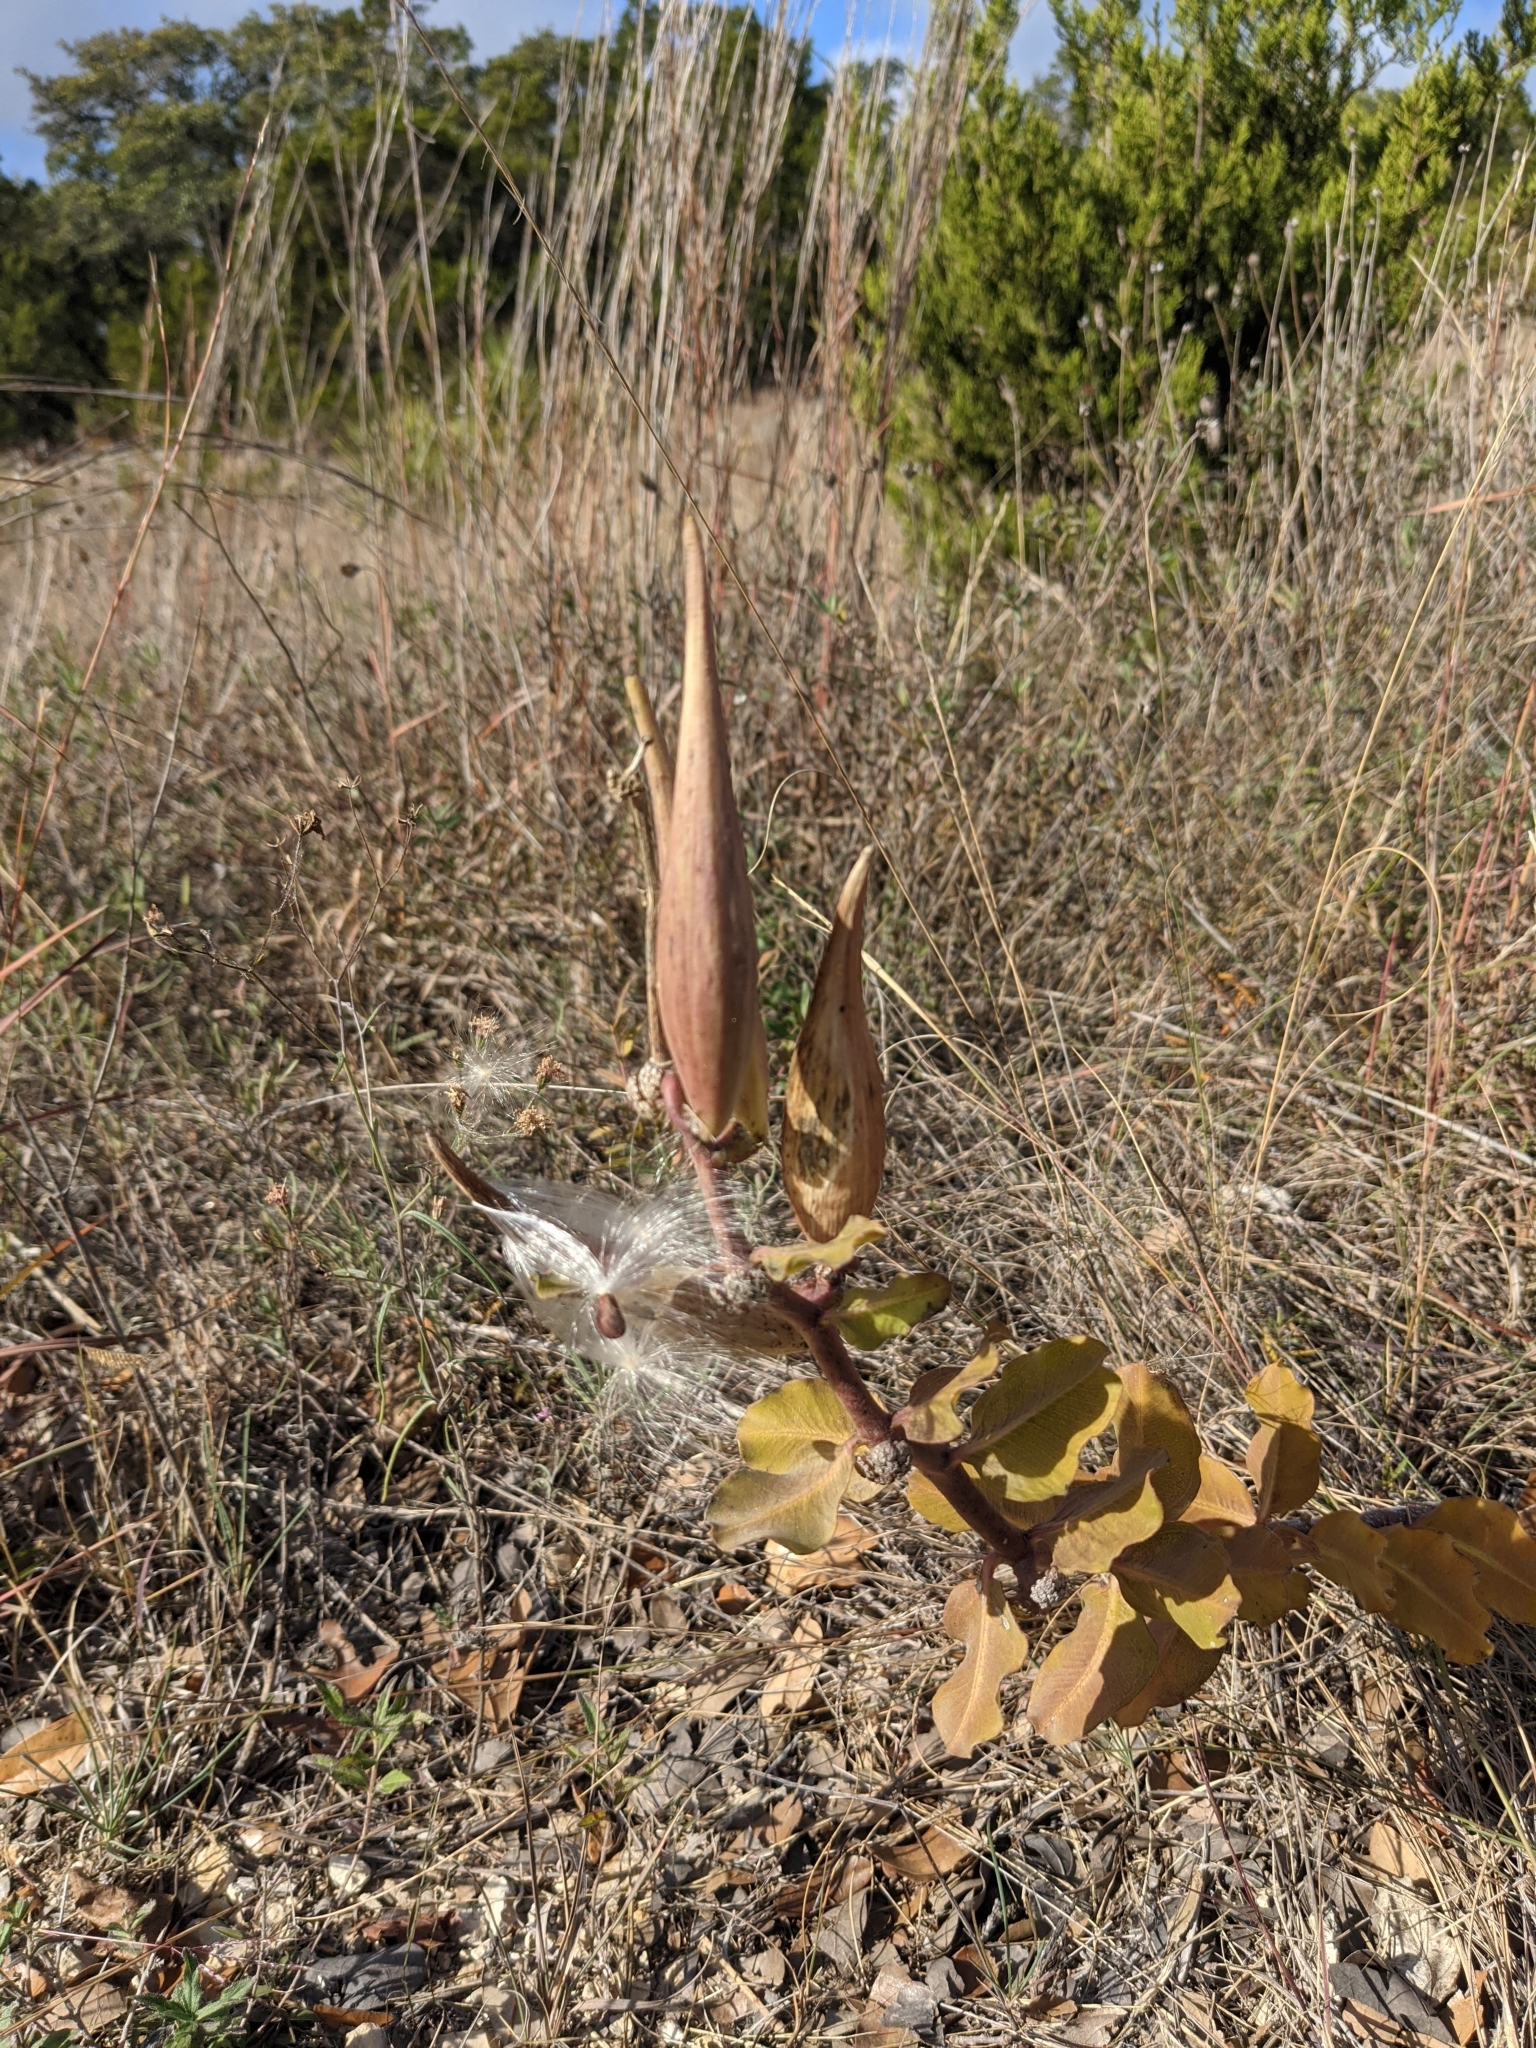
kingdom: Plantae
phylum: Tracheophyta
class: Magnoliopsida
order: Gentianales
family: Apocynaceae
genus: Asclepias
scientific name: Asclepias viridiflora
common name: Green comet milkweed
